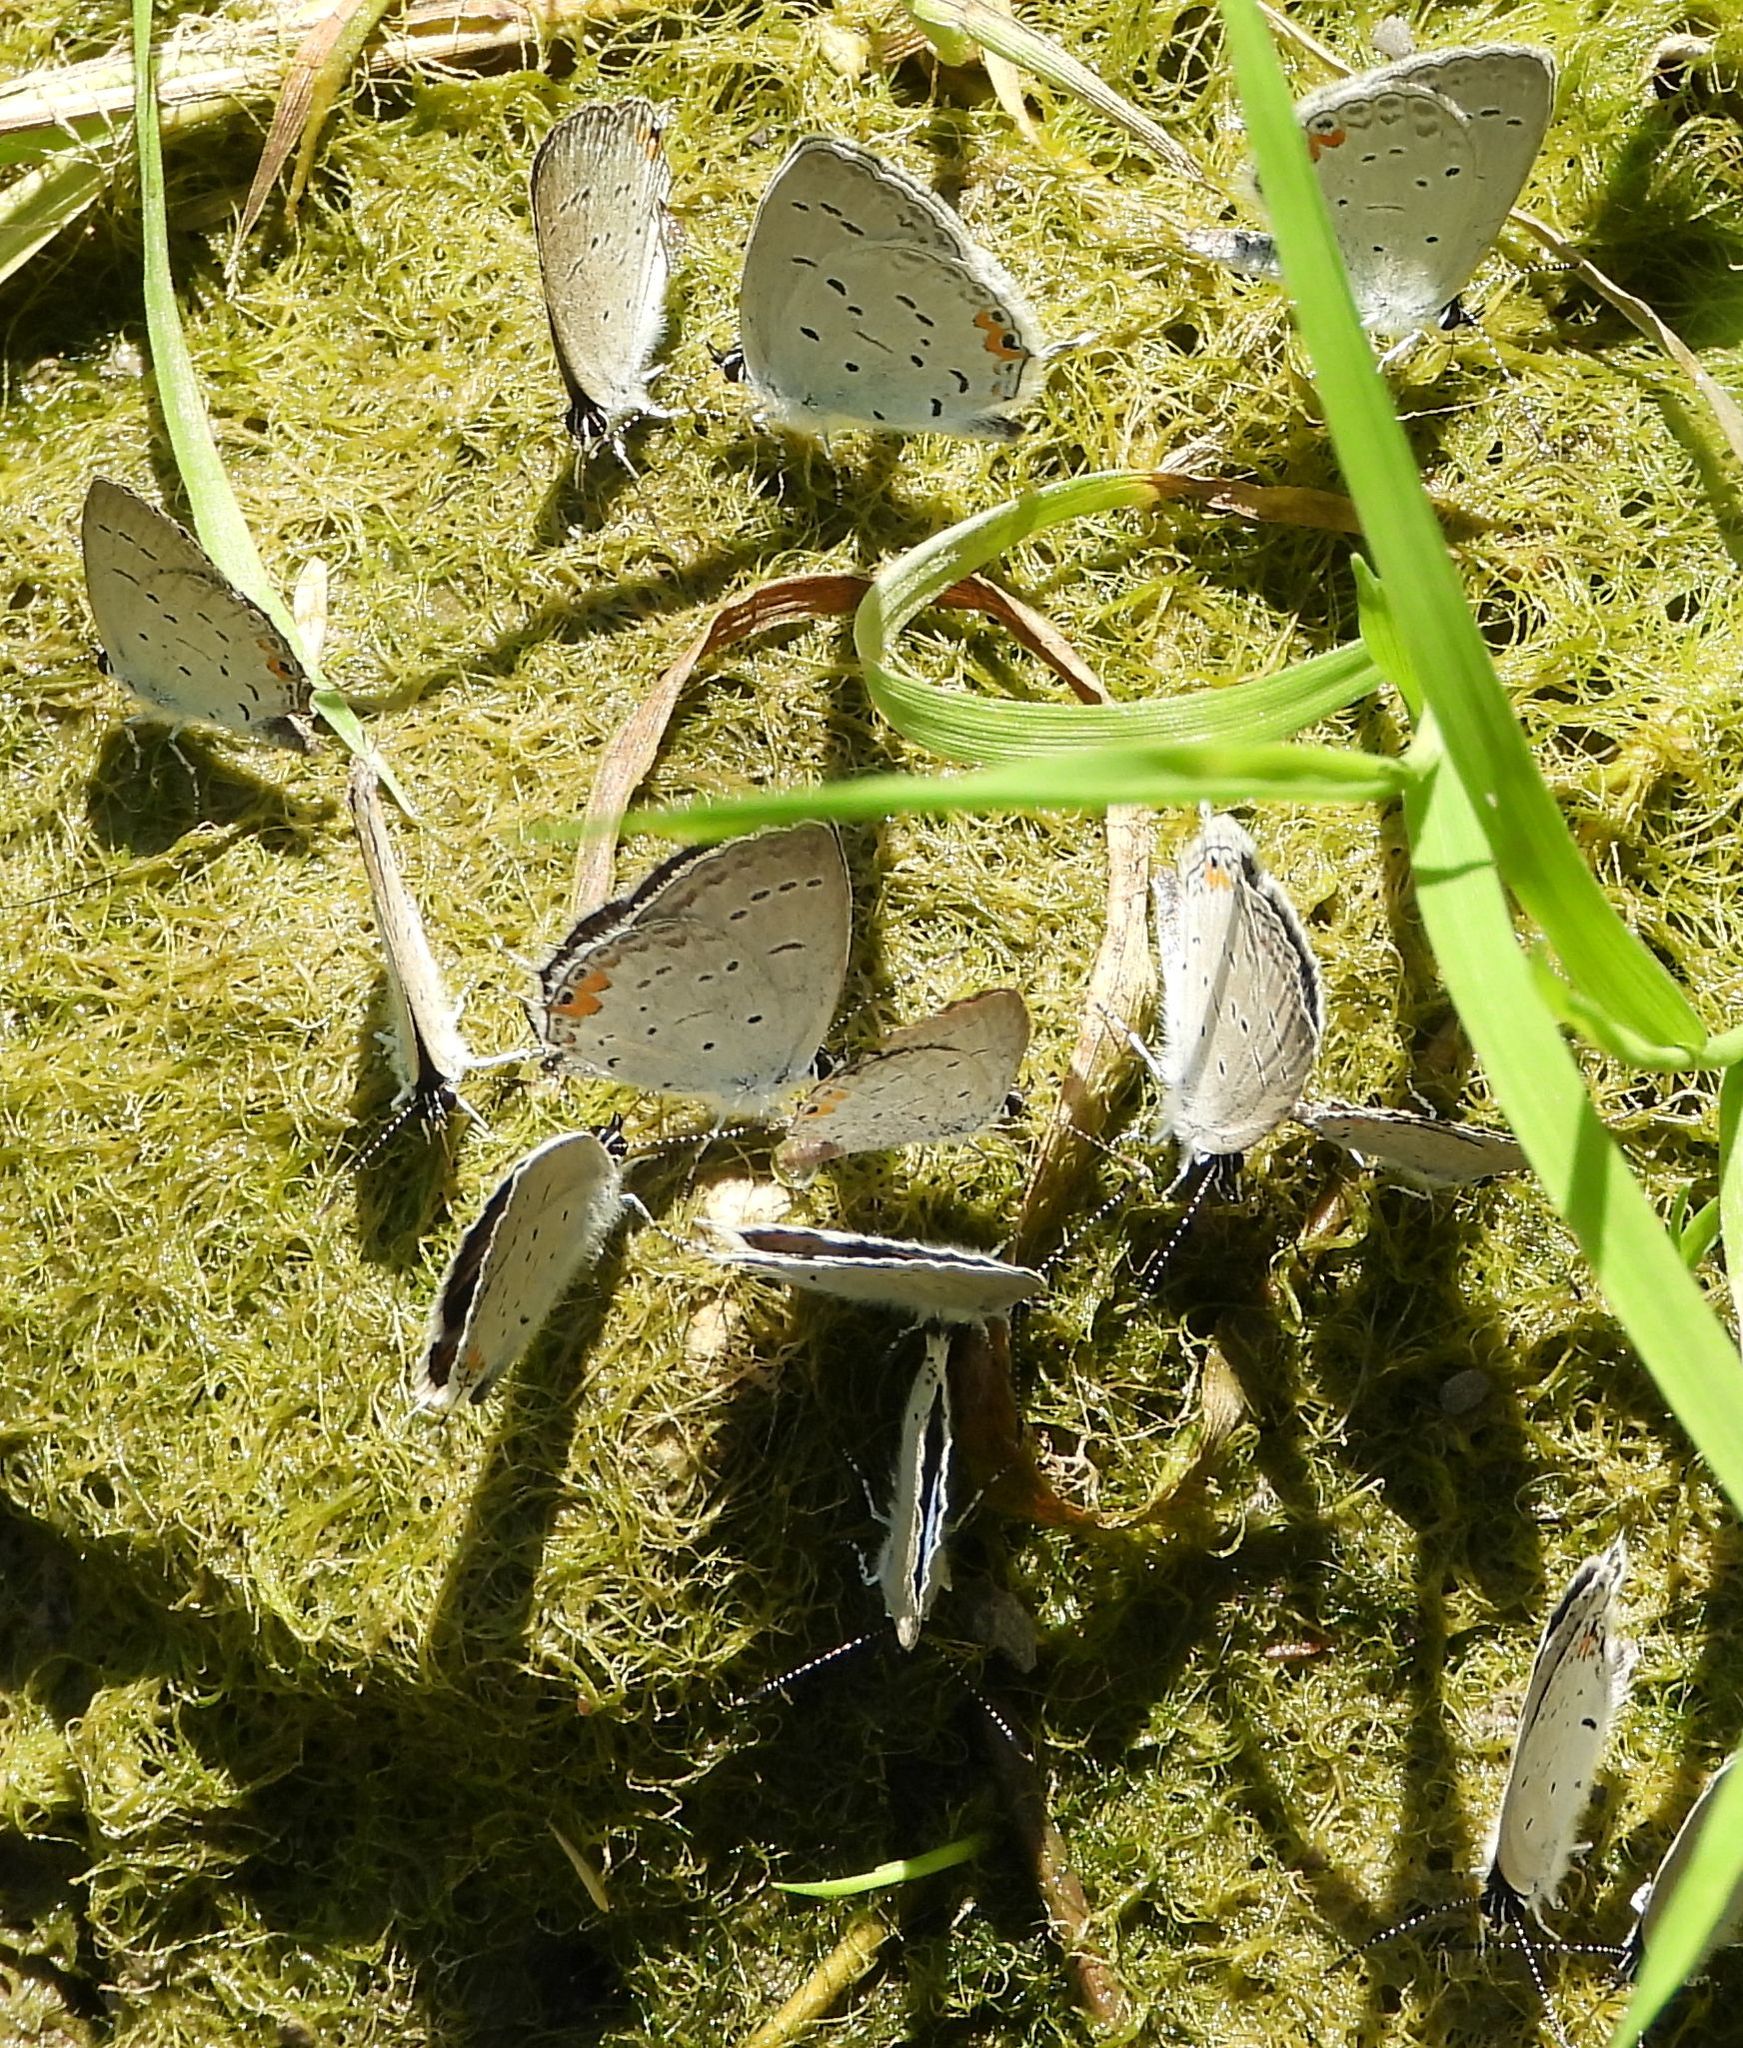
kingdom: Animalia
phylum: Arthropoda
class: Insecta
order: Lepidoptera
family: Lycaenidae
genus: Elkalyce
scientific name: Elkalyce comyntas
